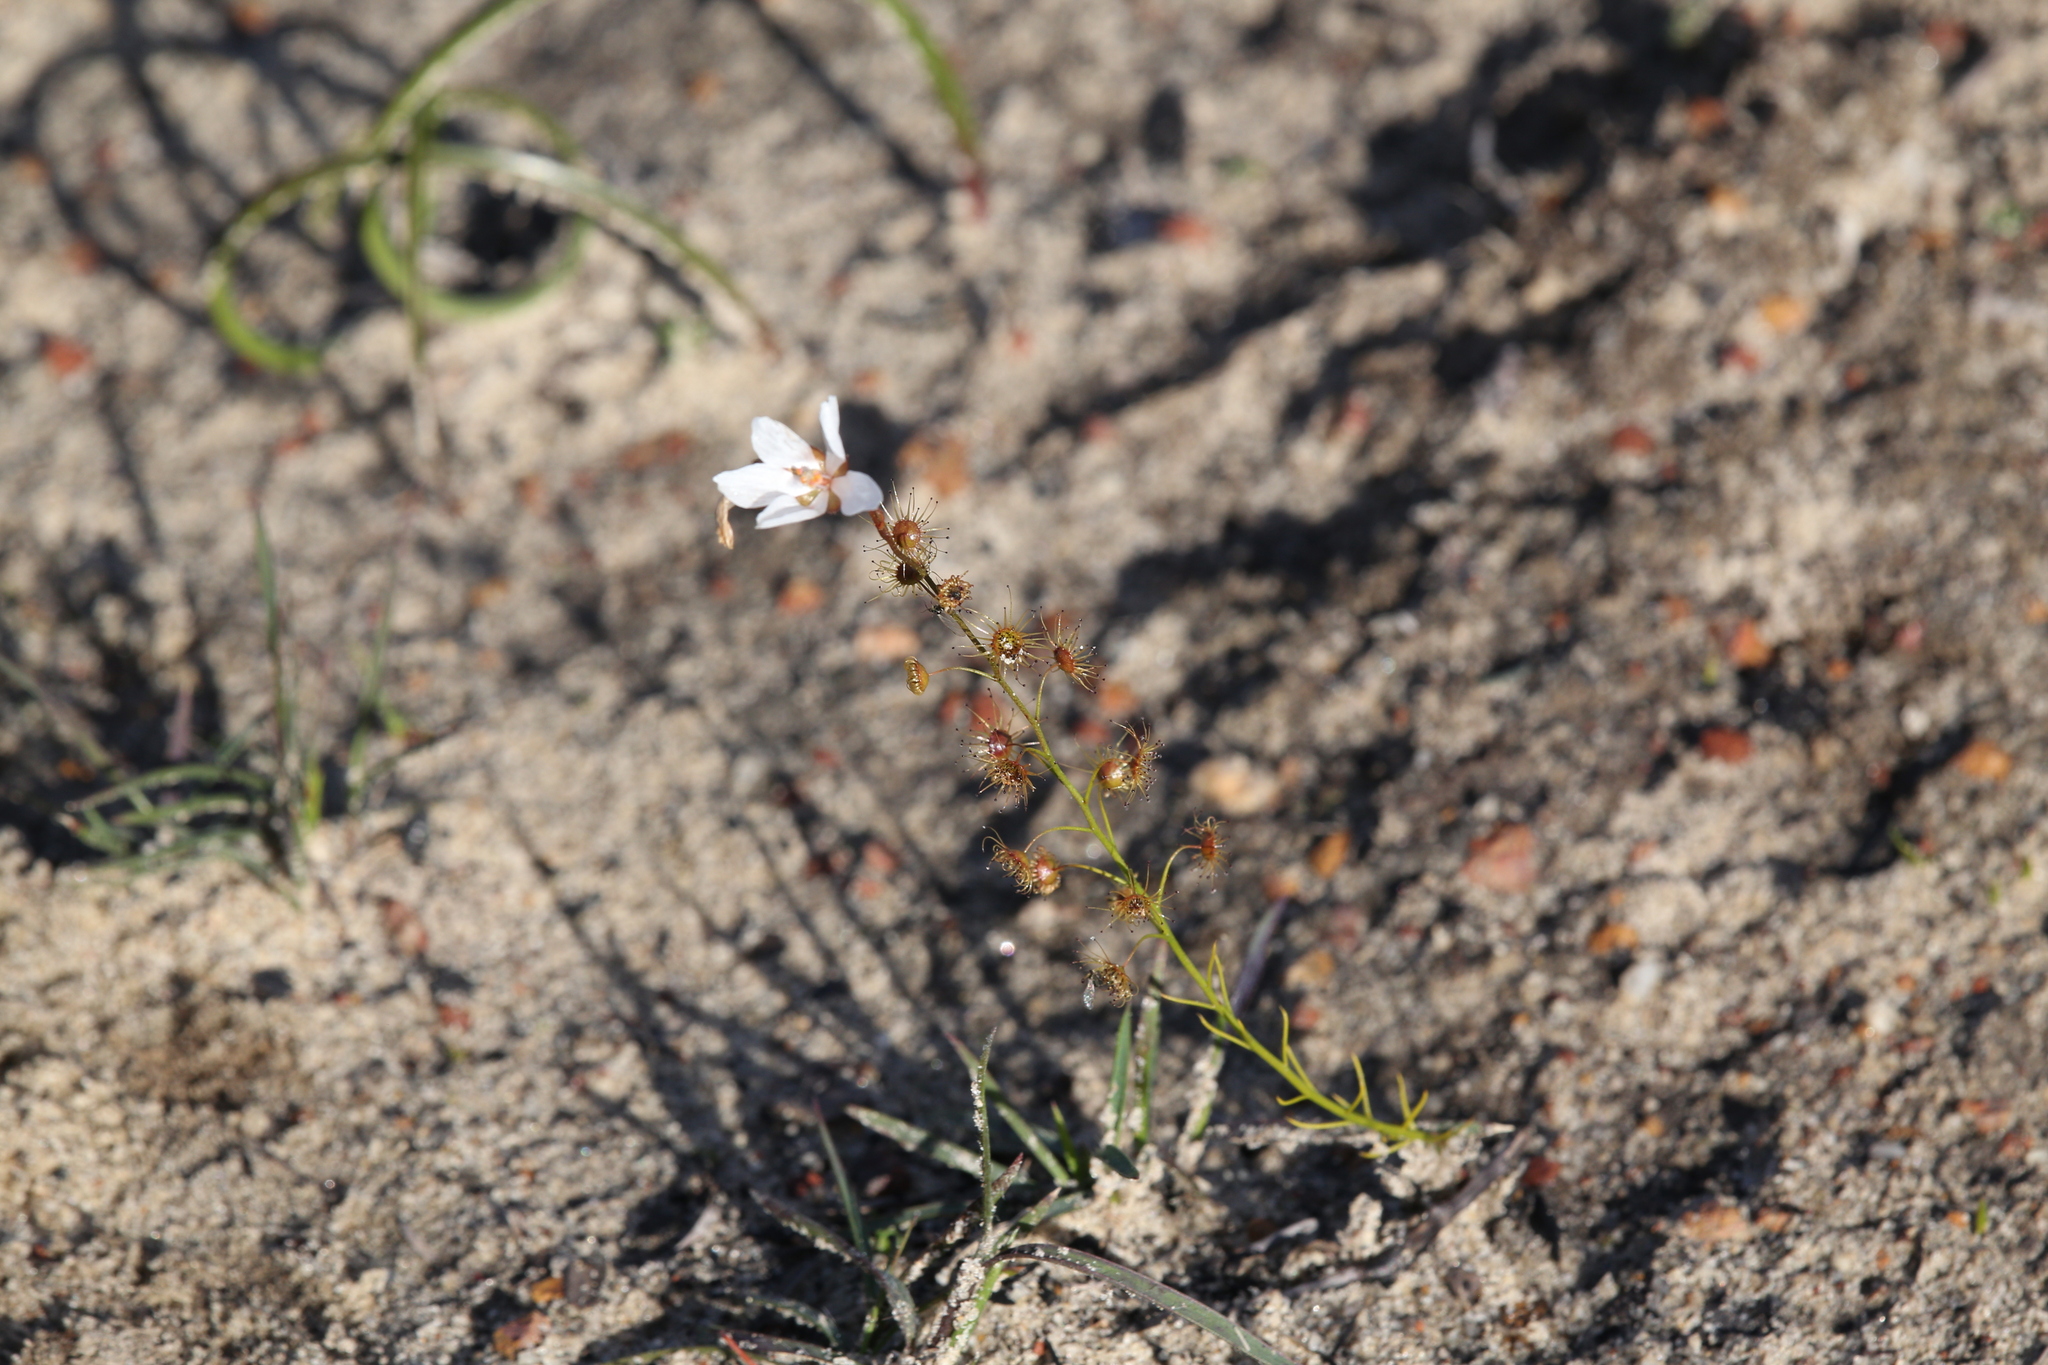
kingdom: Plantae
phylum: Tracheophyta
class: Magnoliopsida
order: Caryophyllales
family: Droseraceae
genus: Drosera
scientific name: Drosera marchantii
